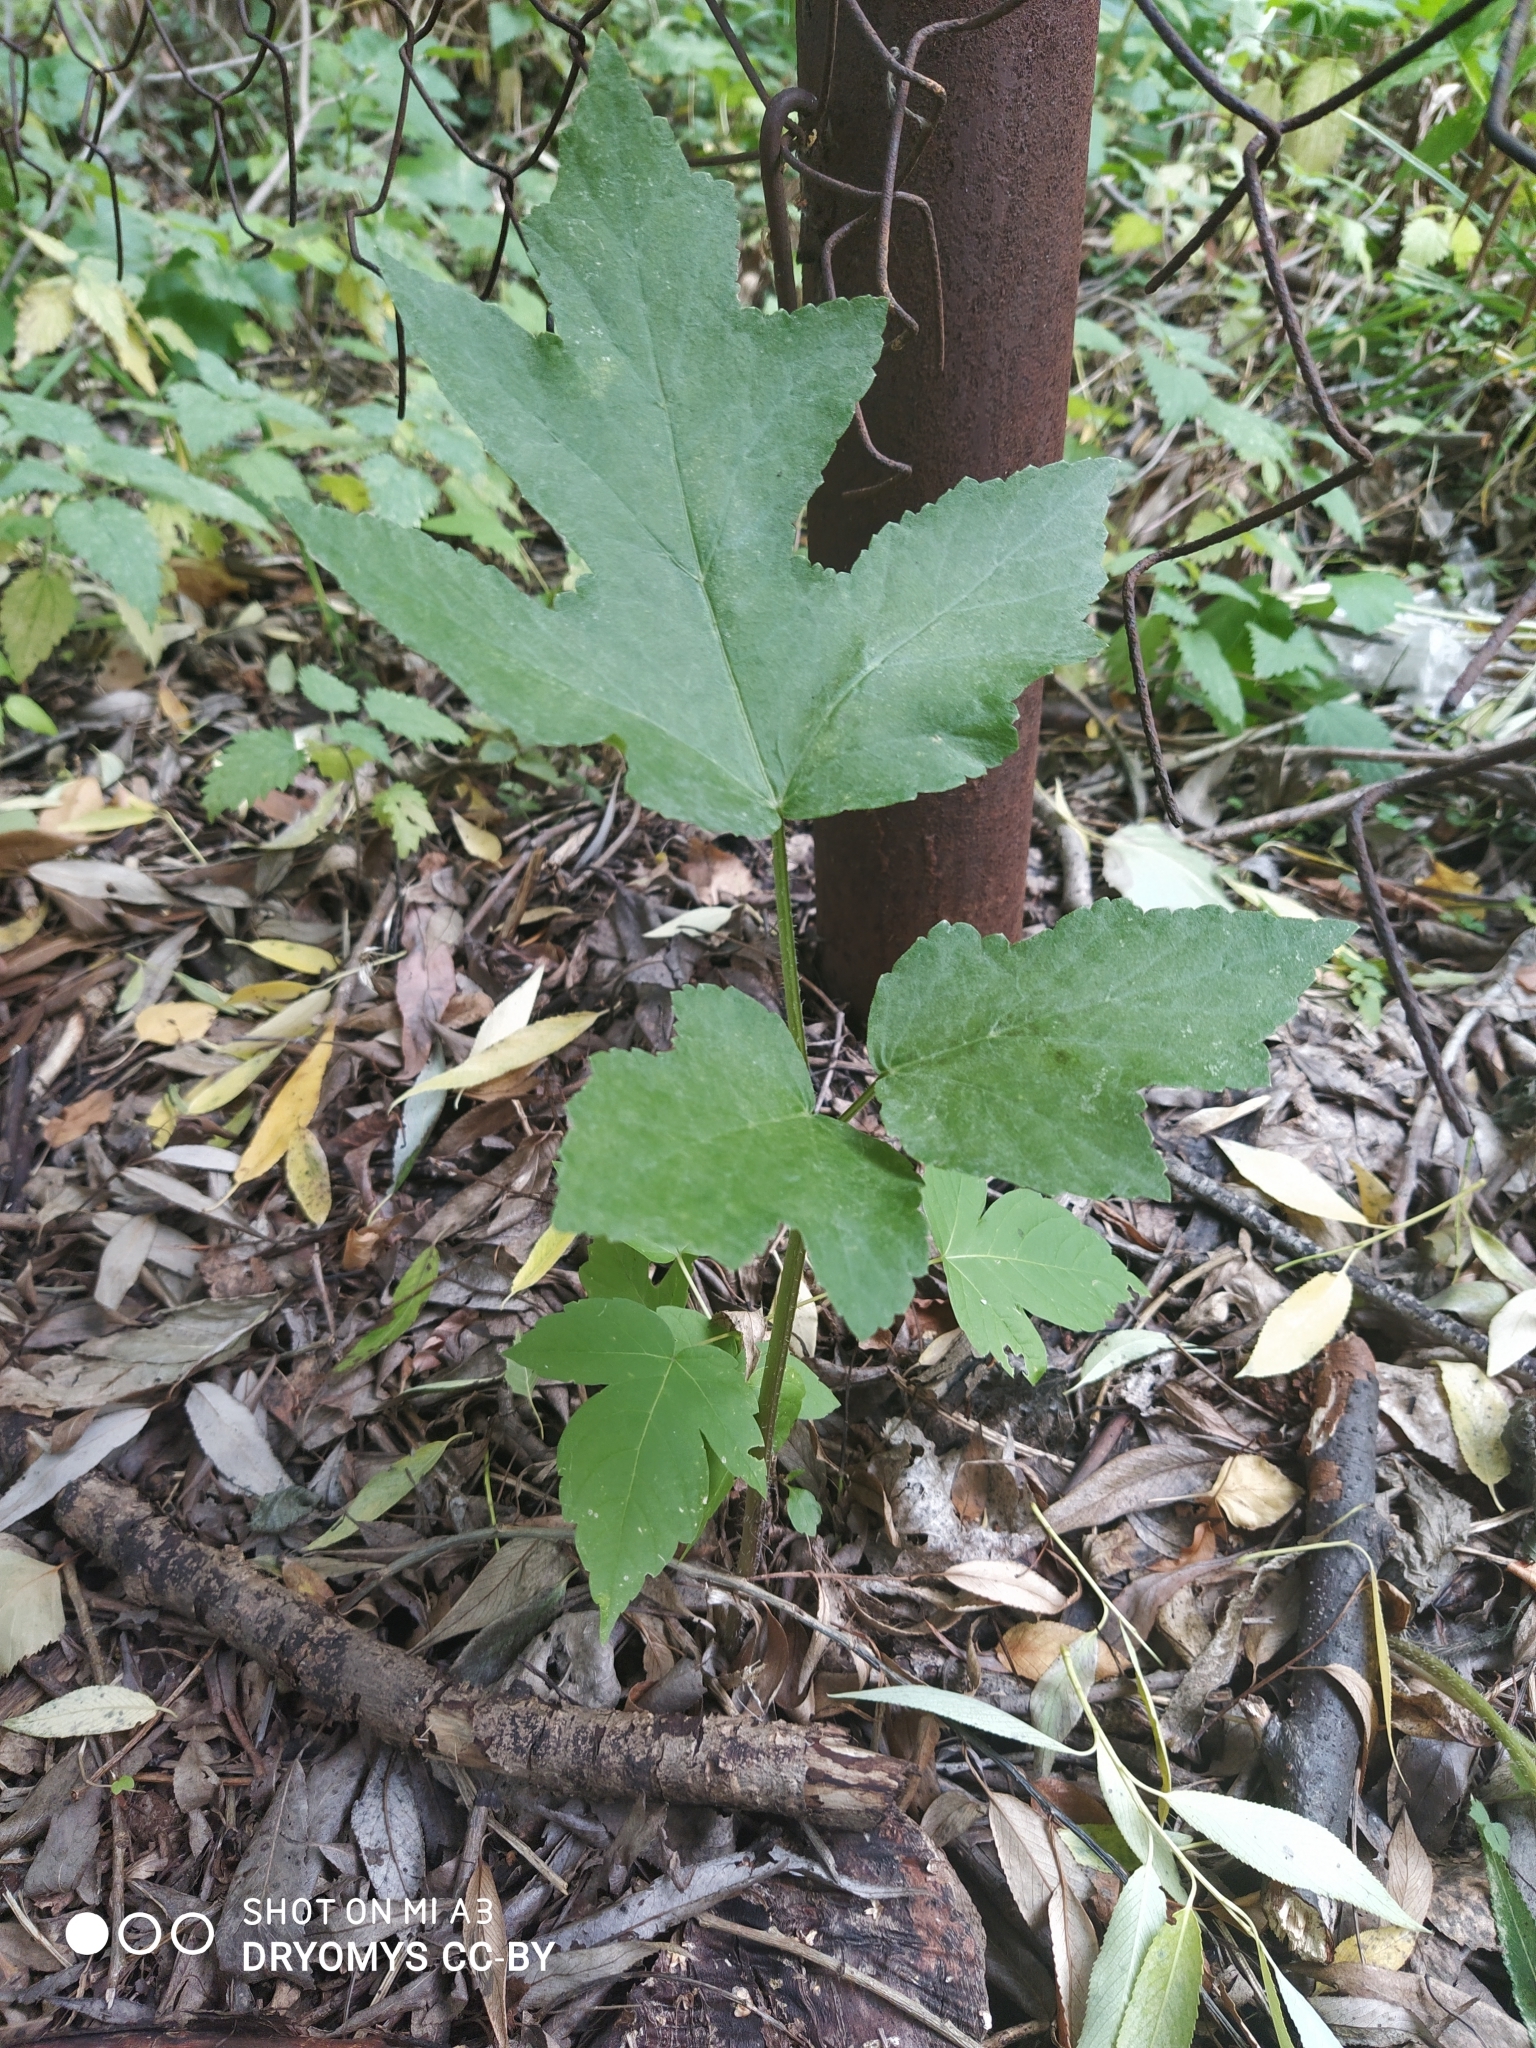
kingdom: Plantae
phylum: Tracheophyta
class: Magnoliopsida
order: Apiales
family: Apiaceae
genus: Heracleum
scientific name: Heracleum sphondylium
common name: Hogweed
